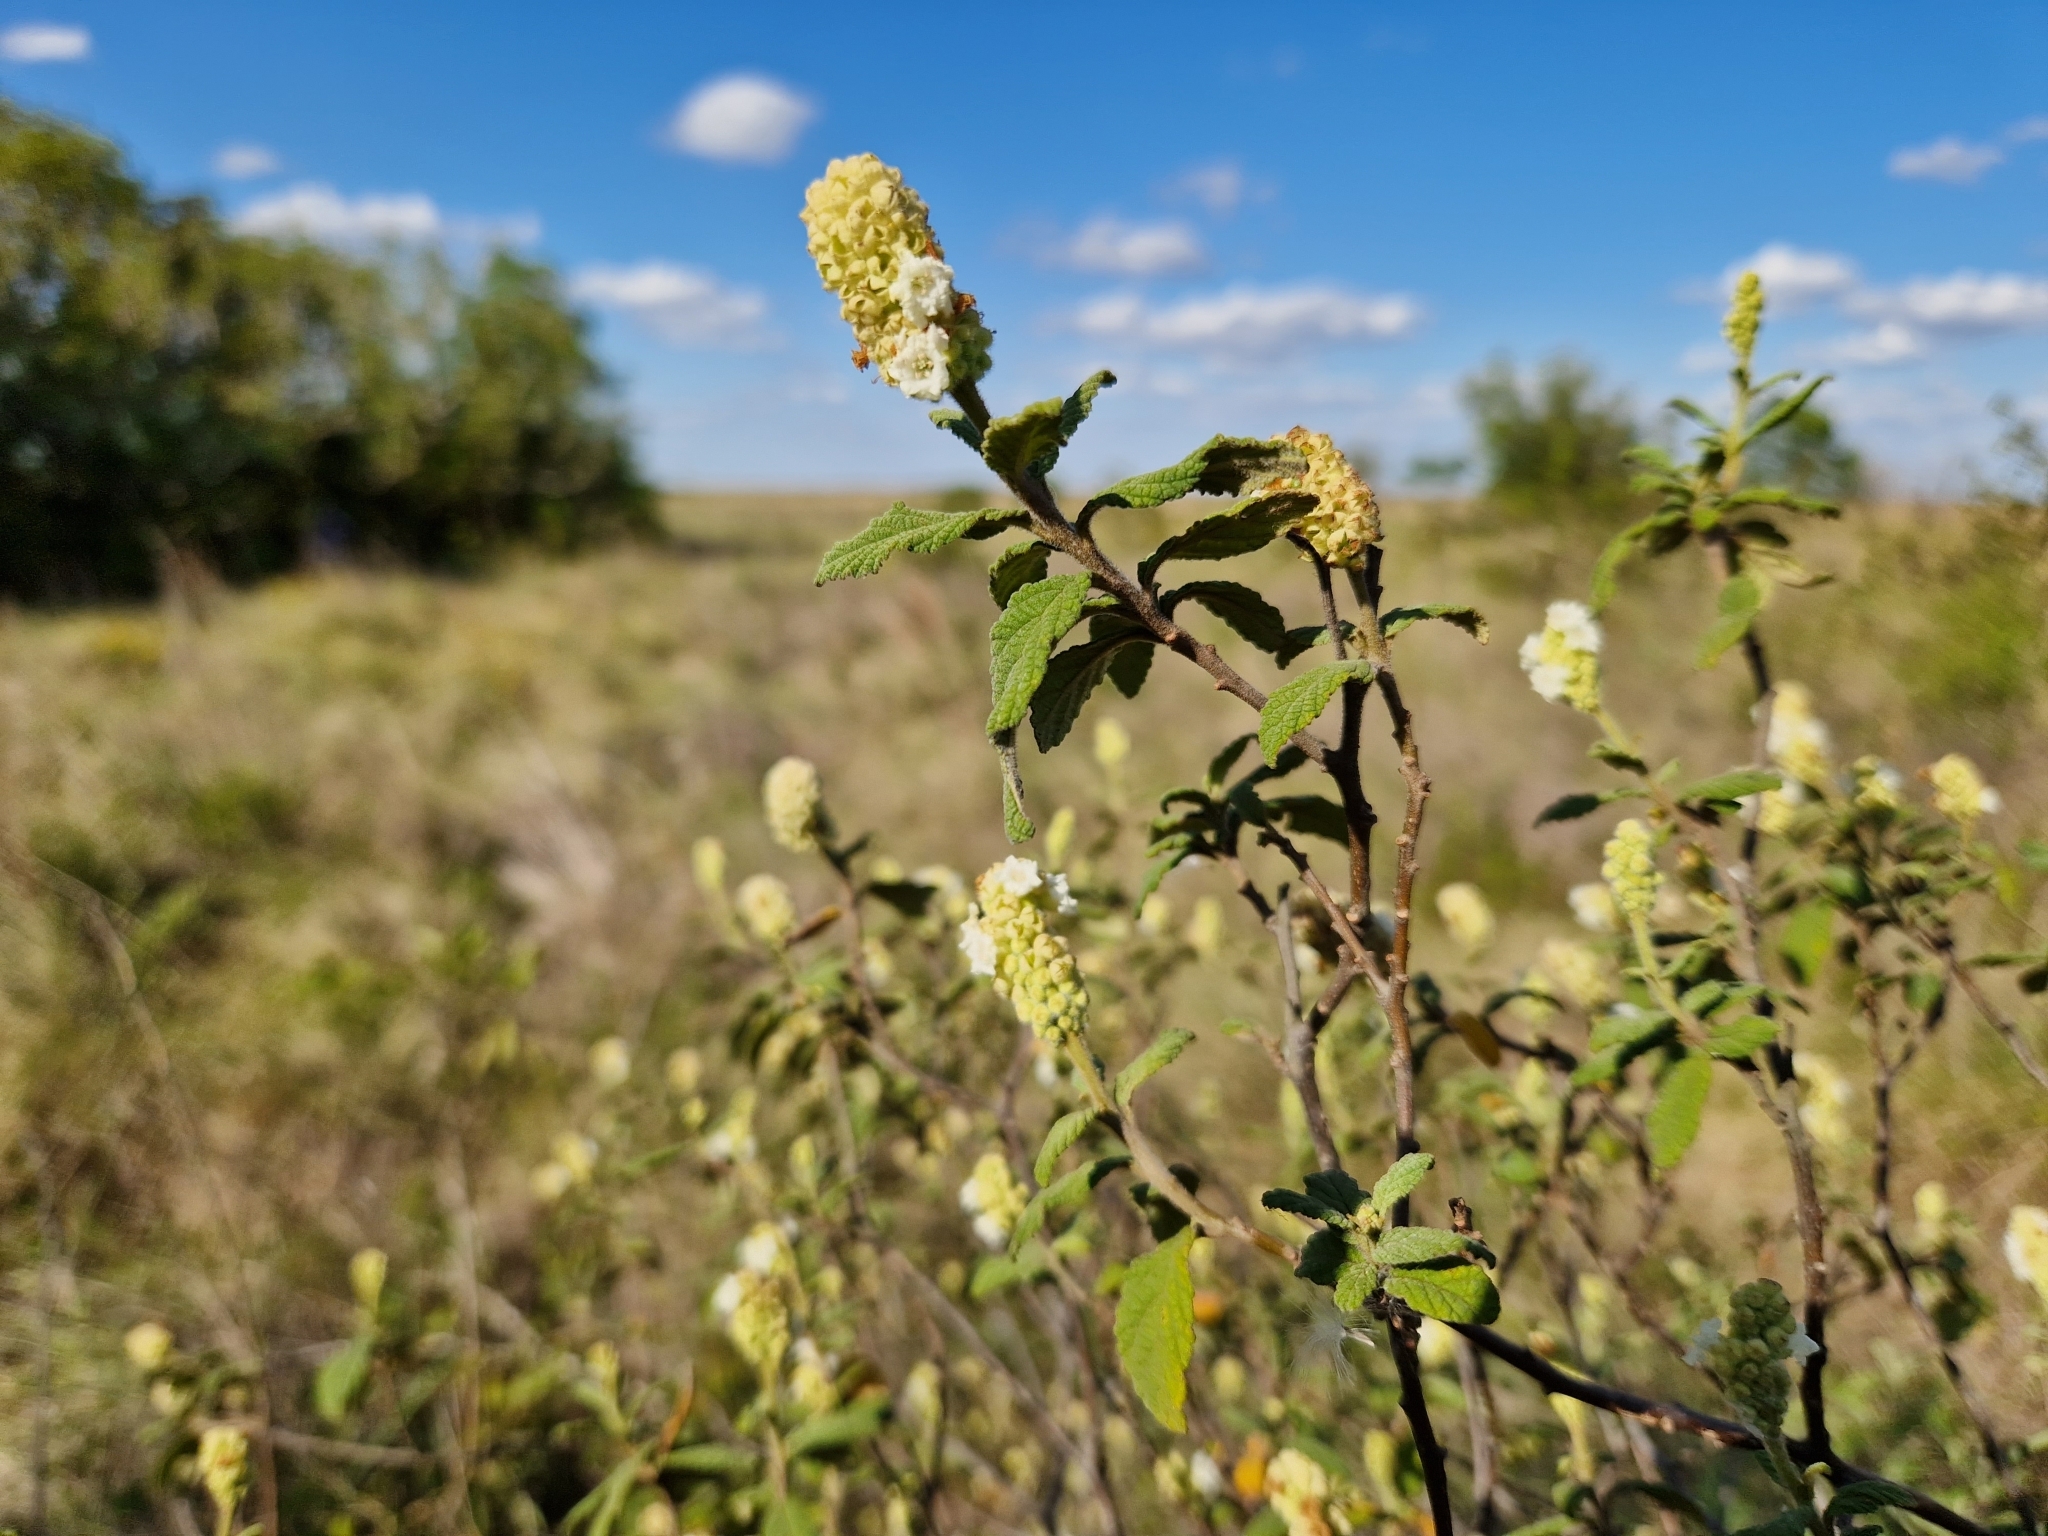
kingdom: Plantae
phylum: Tracheophyta
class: Magnoliopsida
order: Boraginales
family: Cordiaceae
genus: Varronia
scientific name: Varronia curassavica
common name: Black sage
